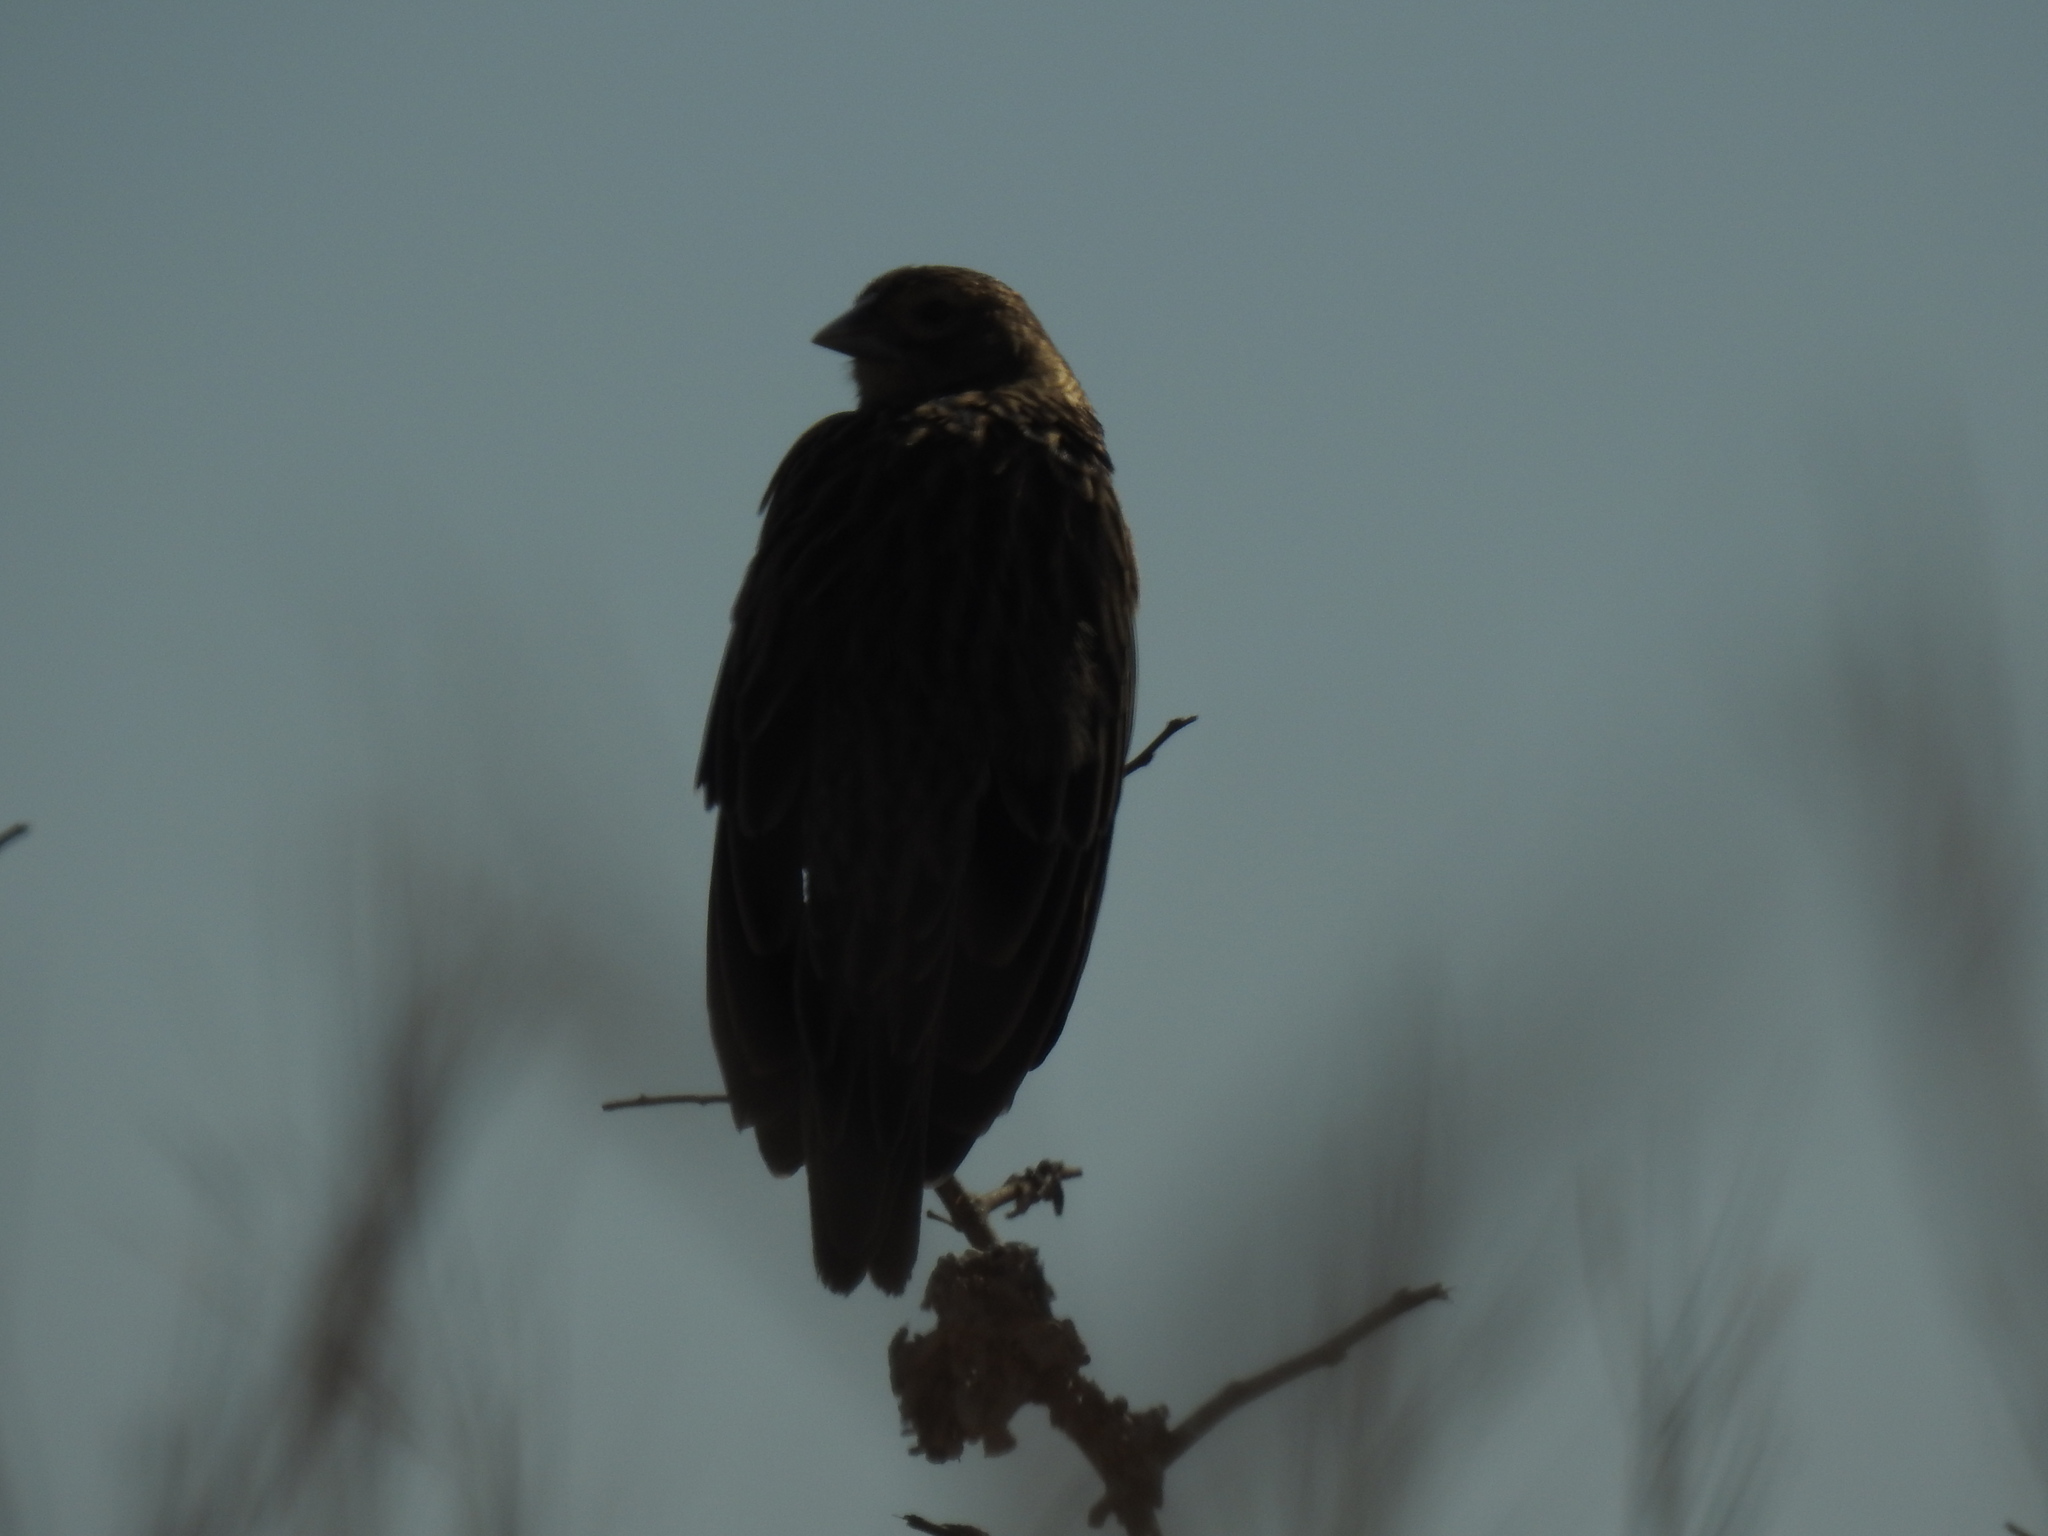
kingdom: Animalia
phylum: Chordata
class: Aves
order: Passeriformes
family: Ploceidae
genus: Euplectes
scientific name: Euplectes progne
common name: Long-tailed widowbird
